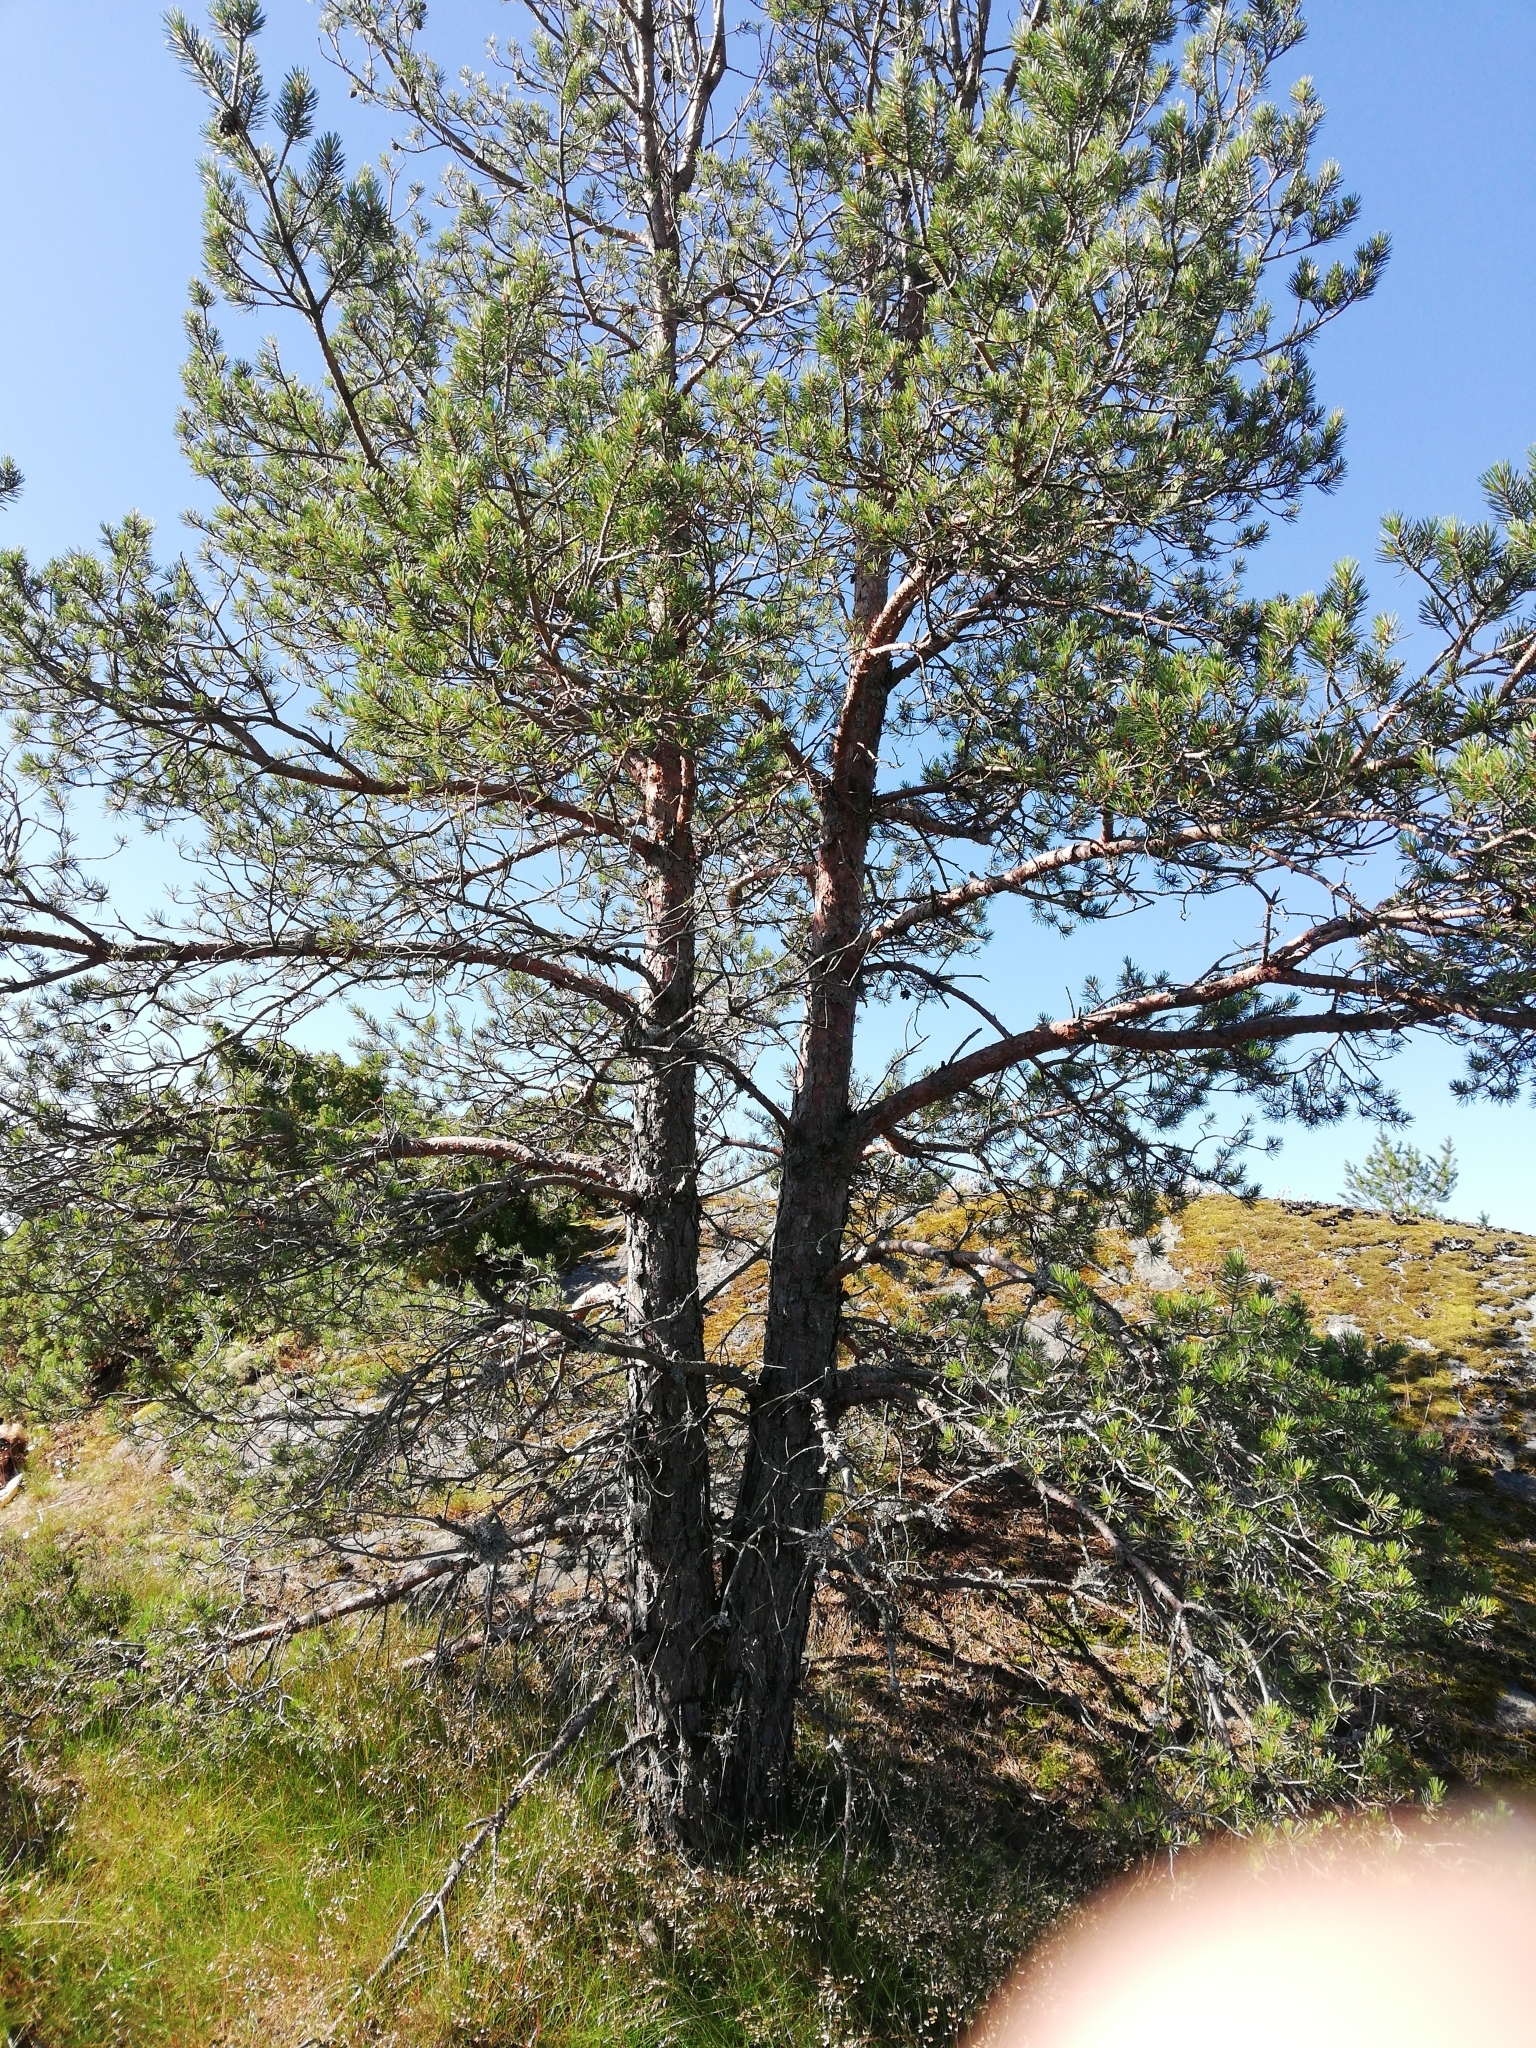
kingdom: Plantae
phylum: Tracheophyta
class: Pinopsida
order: Pinales
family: Pinaceae
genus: Pinus
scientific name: Pinus sylvestris
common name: Scots pine
